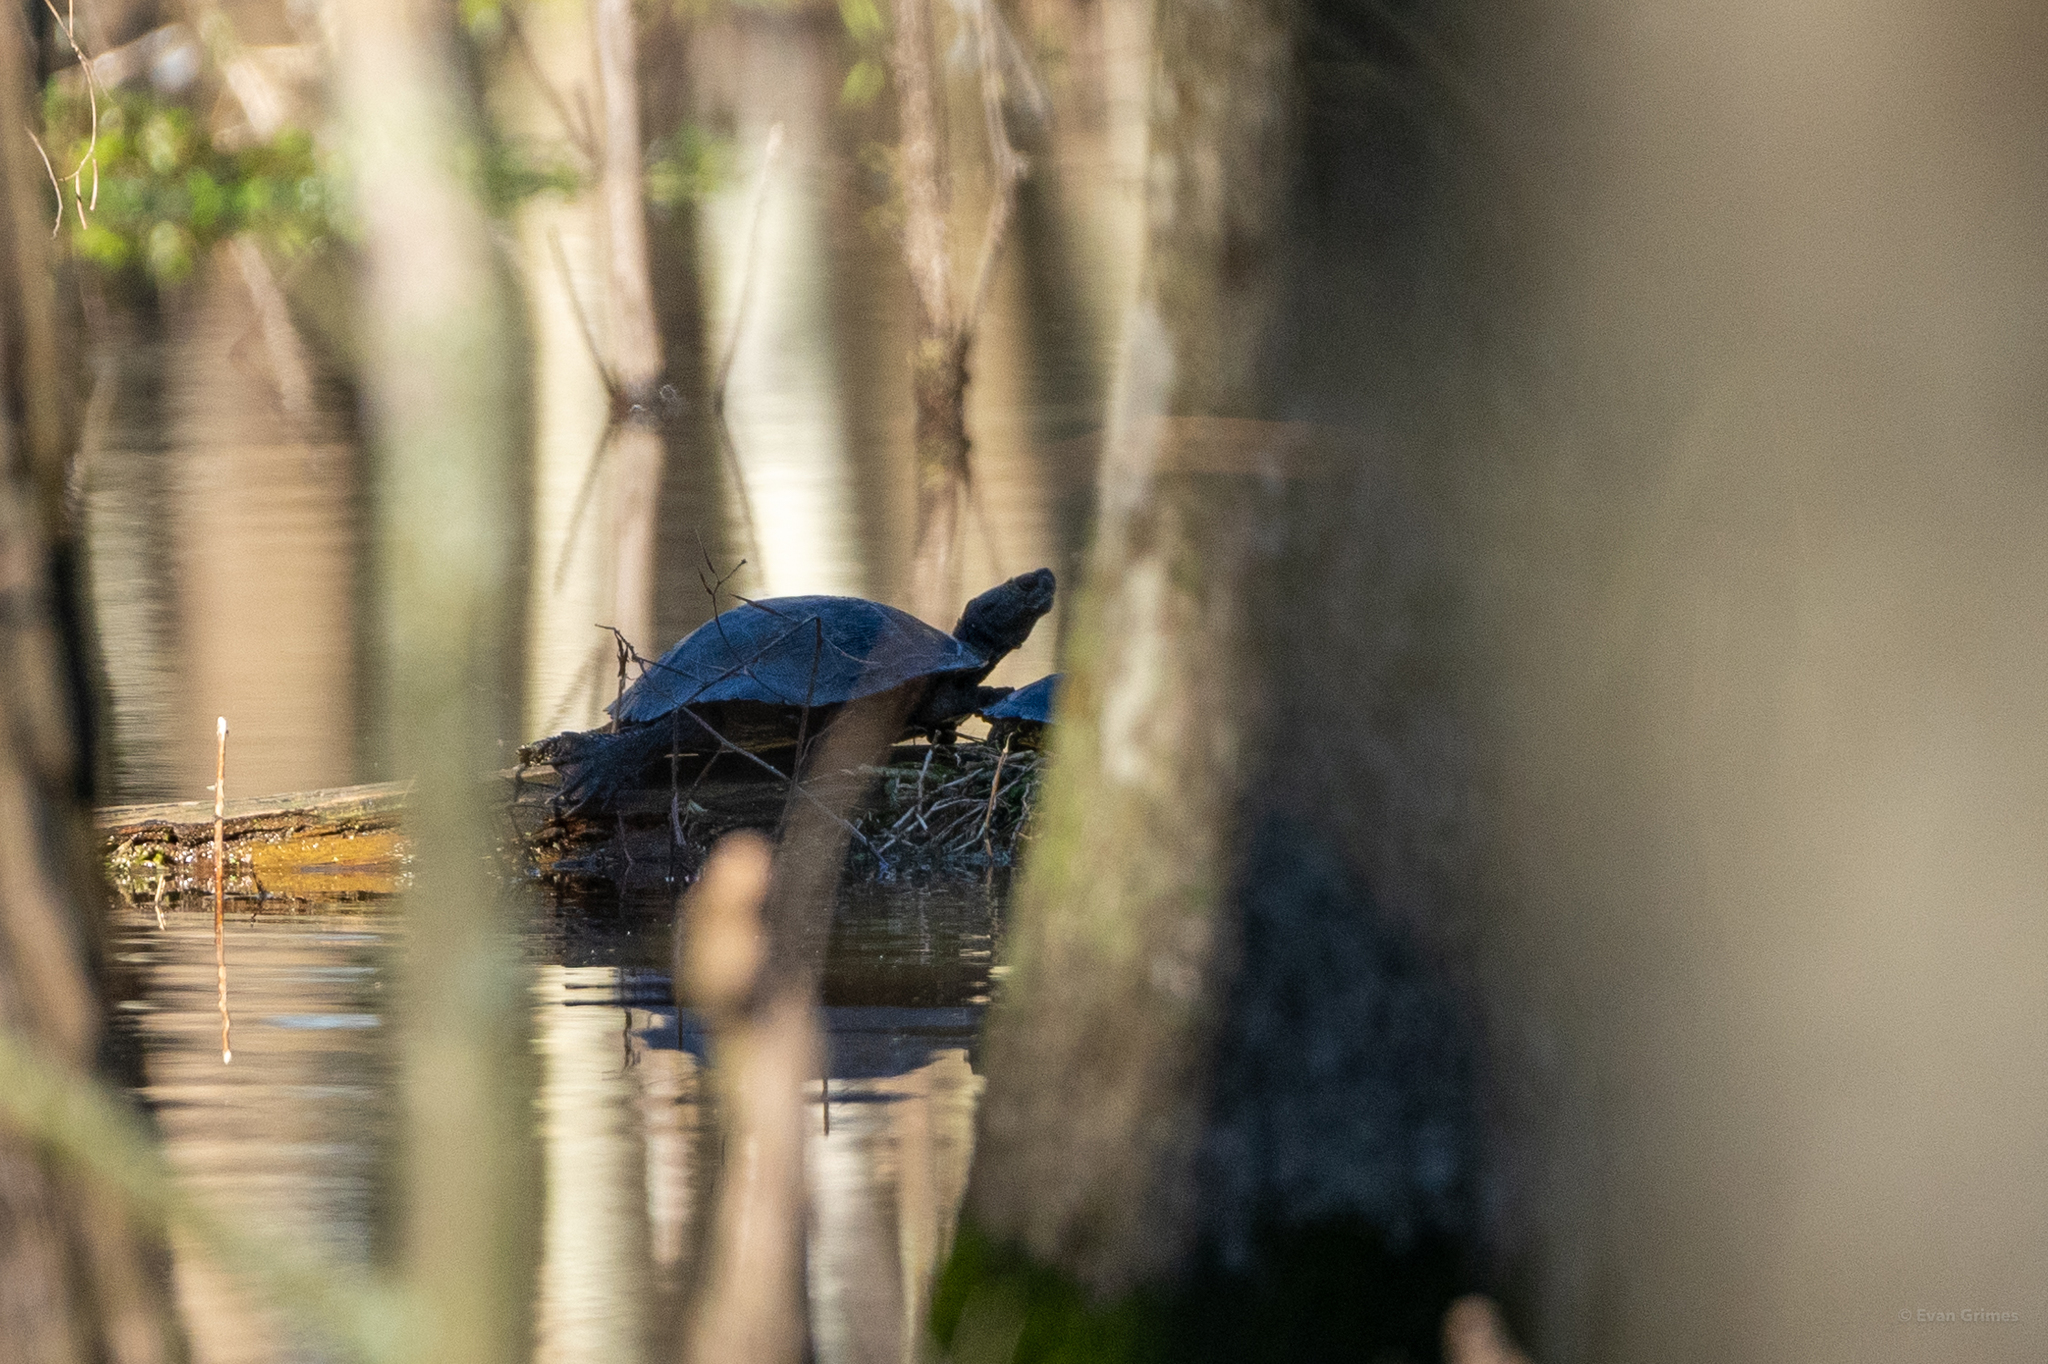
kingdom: Animalia
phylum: Chordata
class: Testudines
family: Emydidae
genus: Trachemys
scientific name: Trachemys scripta
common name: Slider
